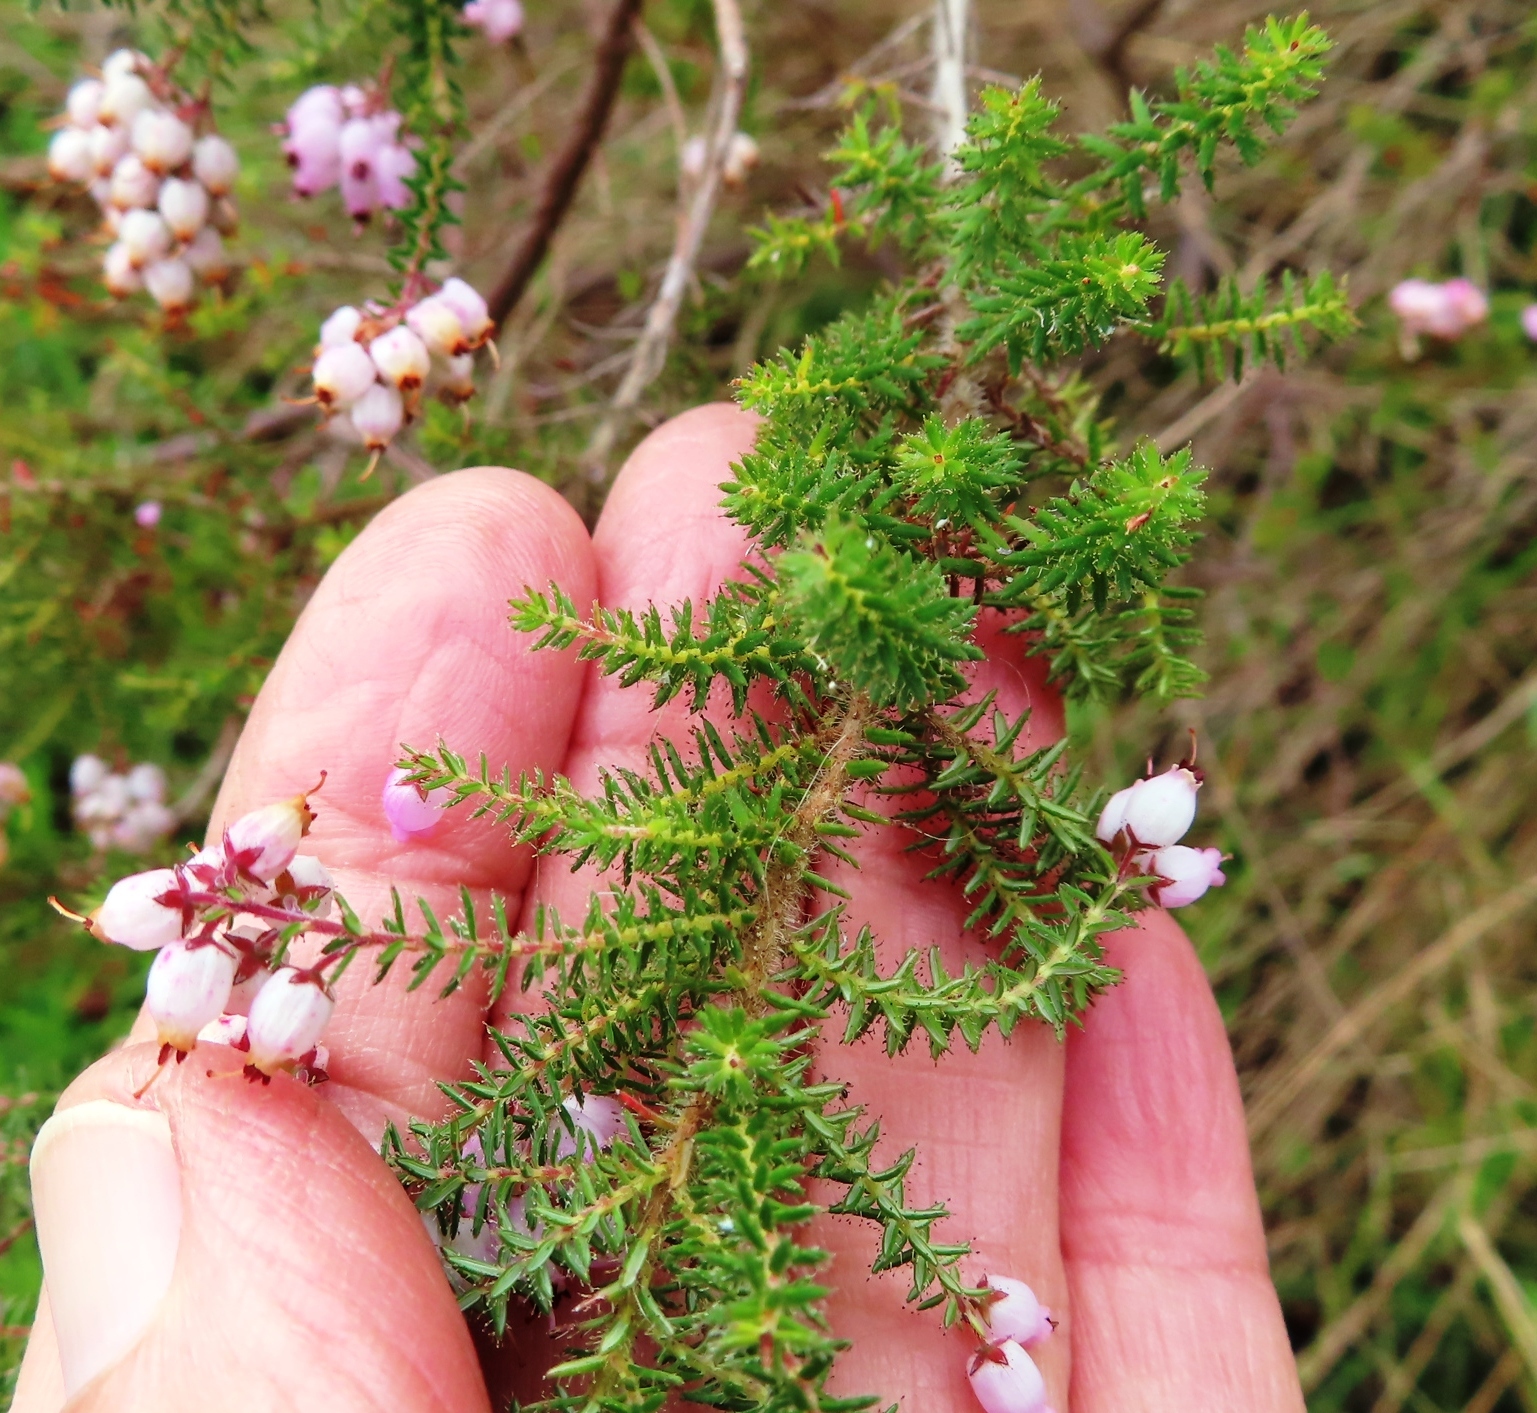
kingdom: Plantae
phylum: Tracheophyta
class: Magnoliopsida
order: Ericales
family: Ericaceae
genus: Erica
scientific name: Erica racemosa
